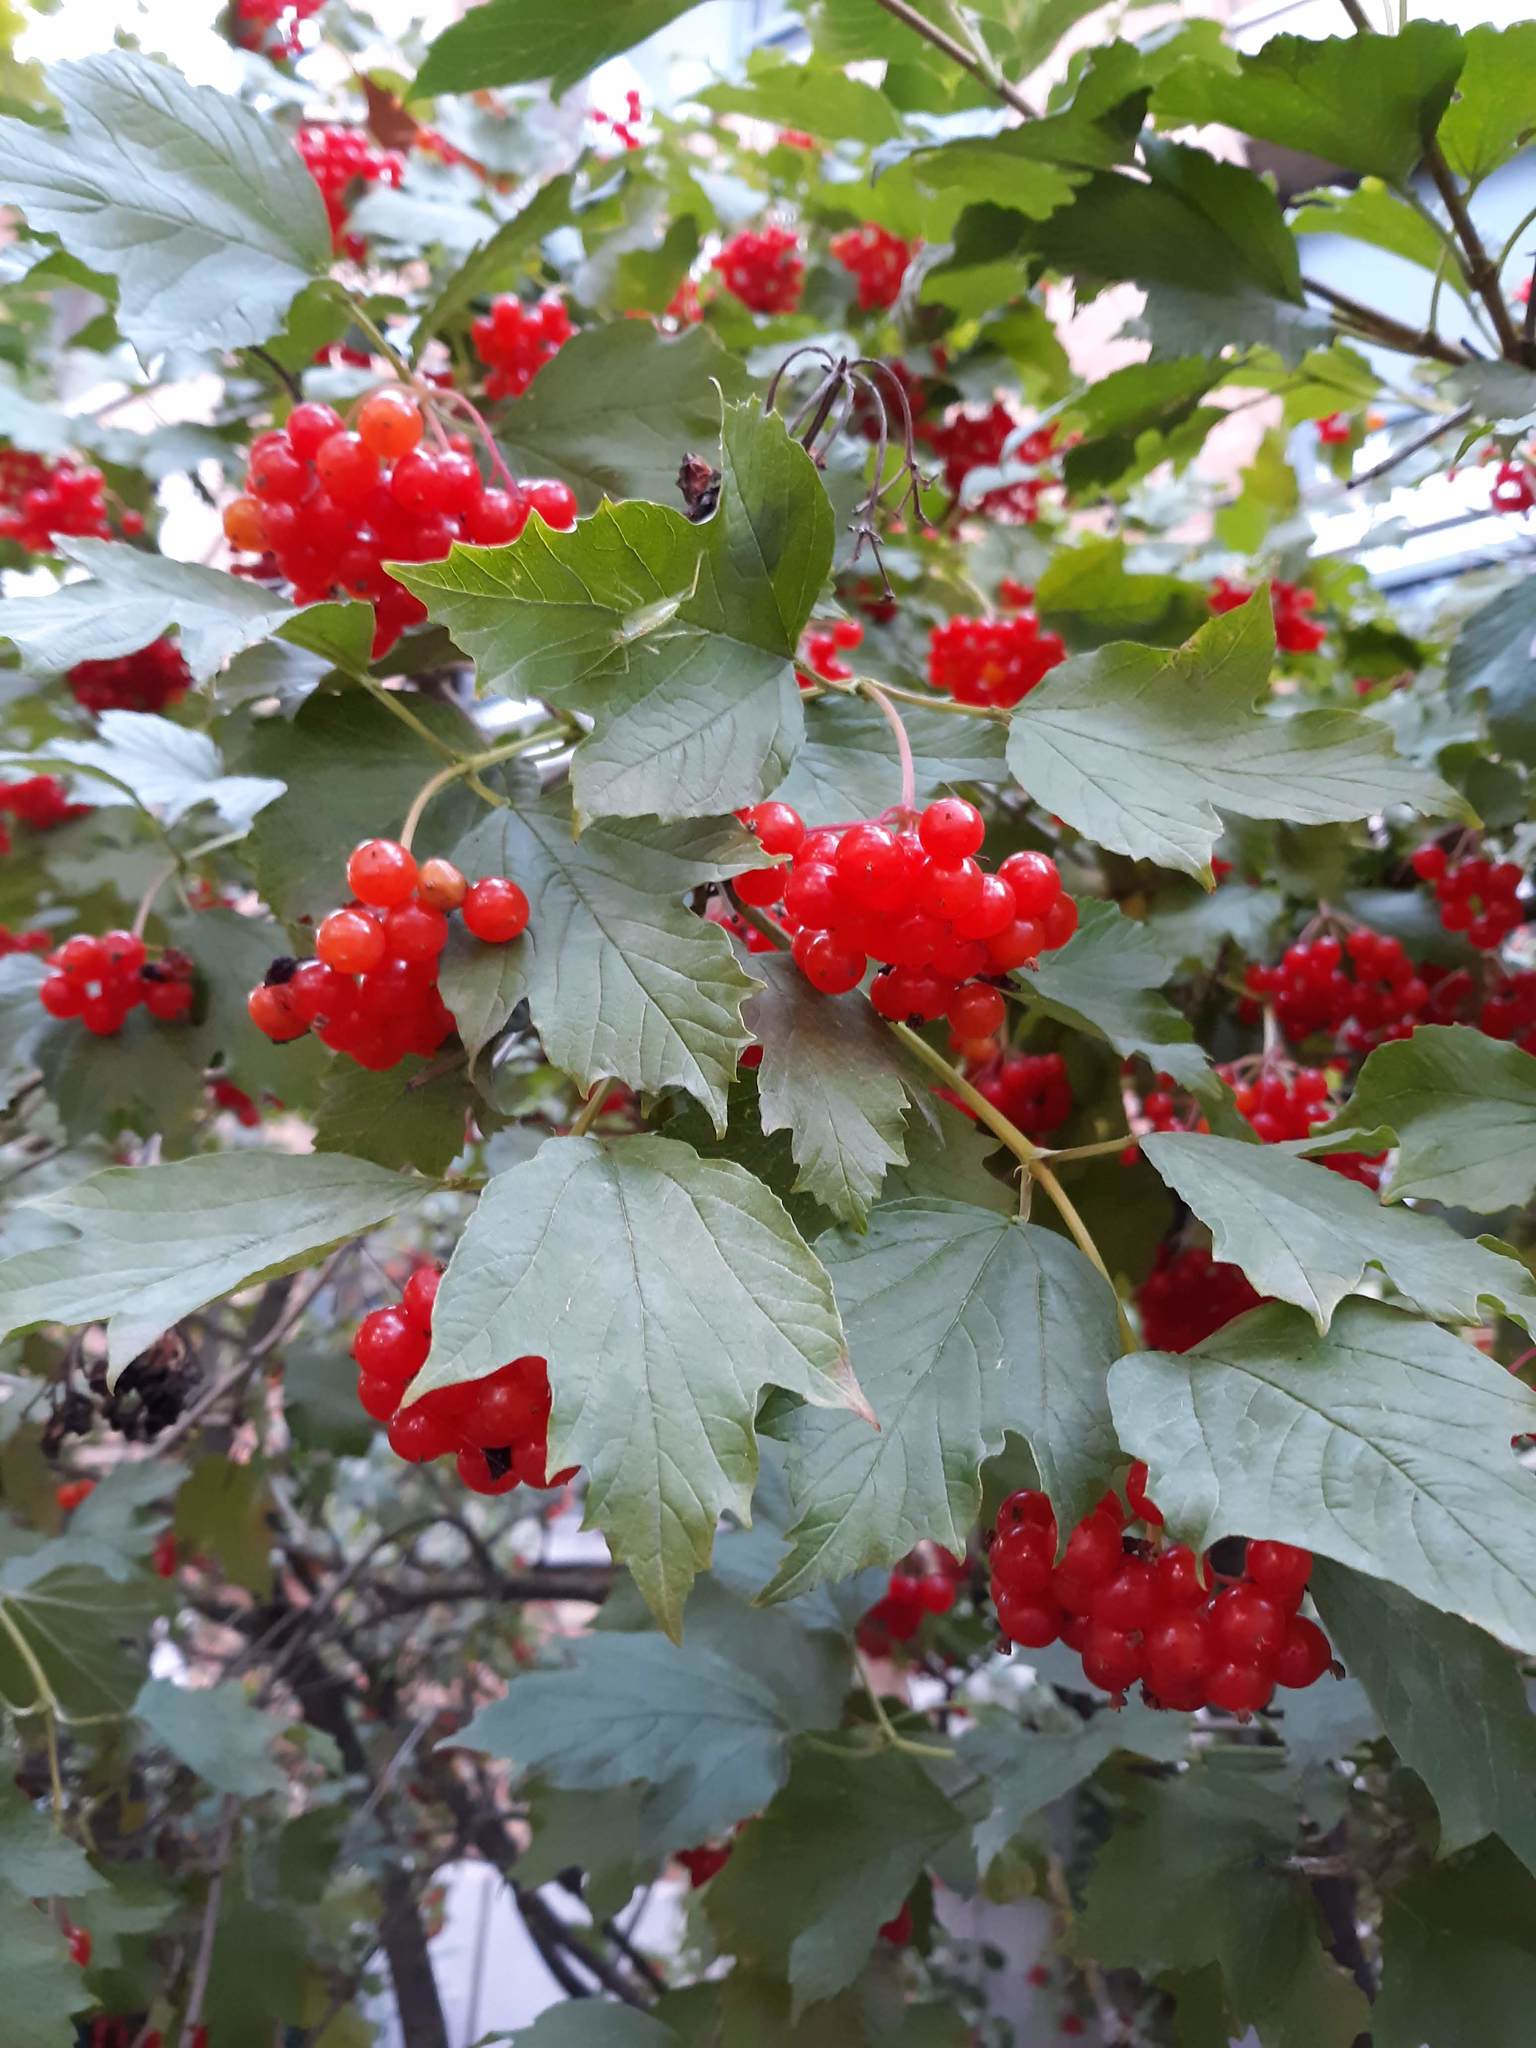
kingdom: Plantae
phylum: Tracheophyta
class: Magnoliopsida
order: Dipsacales
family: Viburnaceae
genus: Viburnum
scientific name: Viburnum opulus
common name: Guelder-rose
